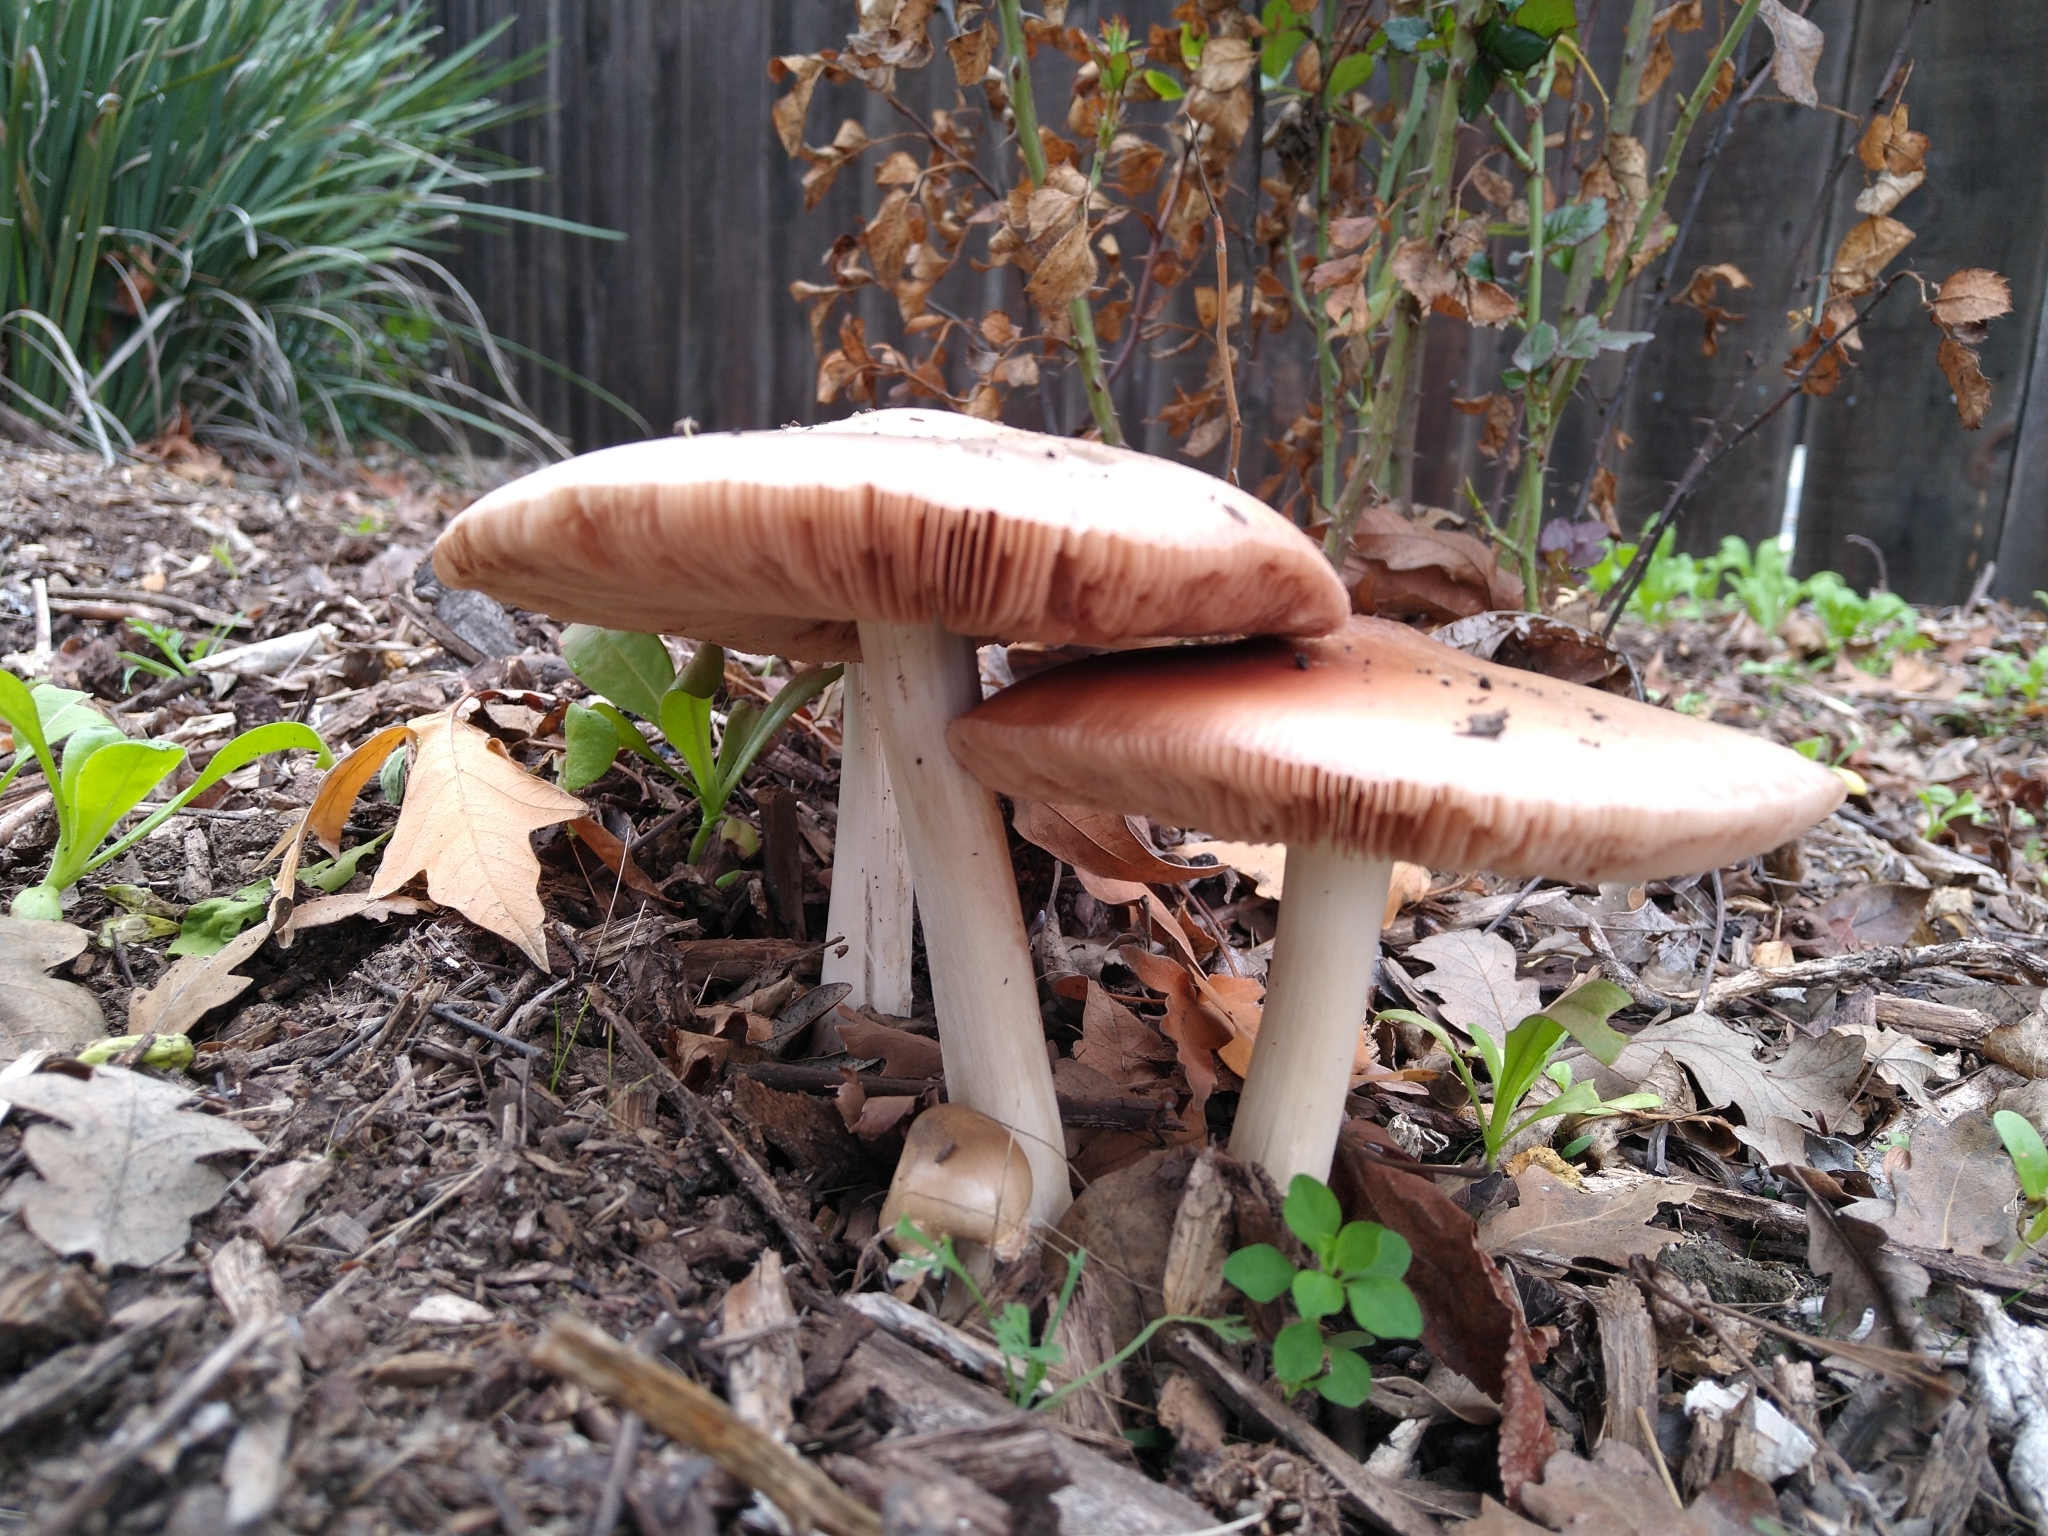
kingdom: Fungi
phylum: Basidiomycota
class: Agaricomycetes
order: Agaricales
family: Pluteaceae
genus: Volvopluteus
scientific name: Volvopluteus gloiocephalus
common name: Stubble rosegill
